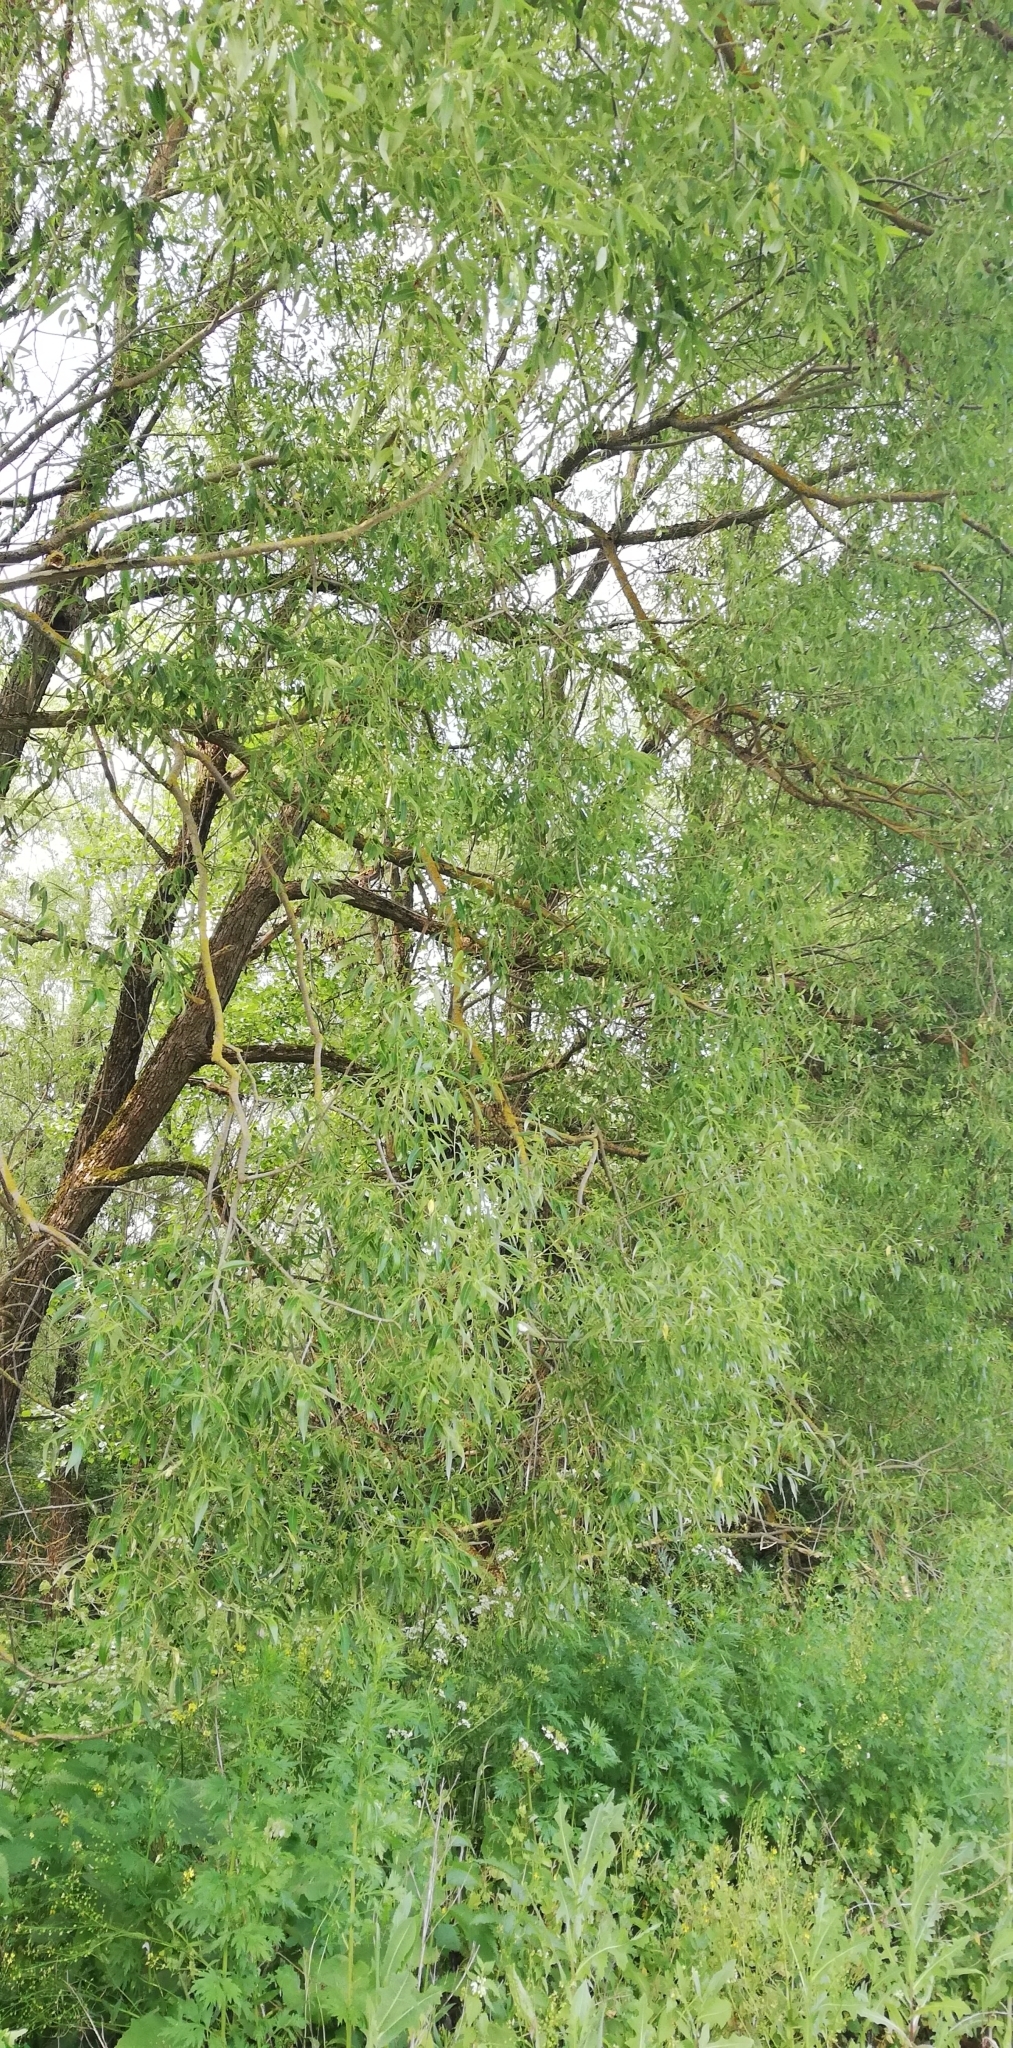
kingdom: Plantae
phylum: Tracheophyta
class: Magnoliopsida
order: Malpighiales
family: Salicaceae
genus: Salix
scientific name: Salix alba
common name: White willow
